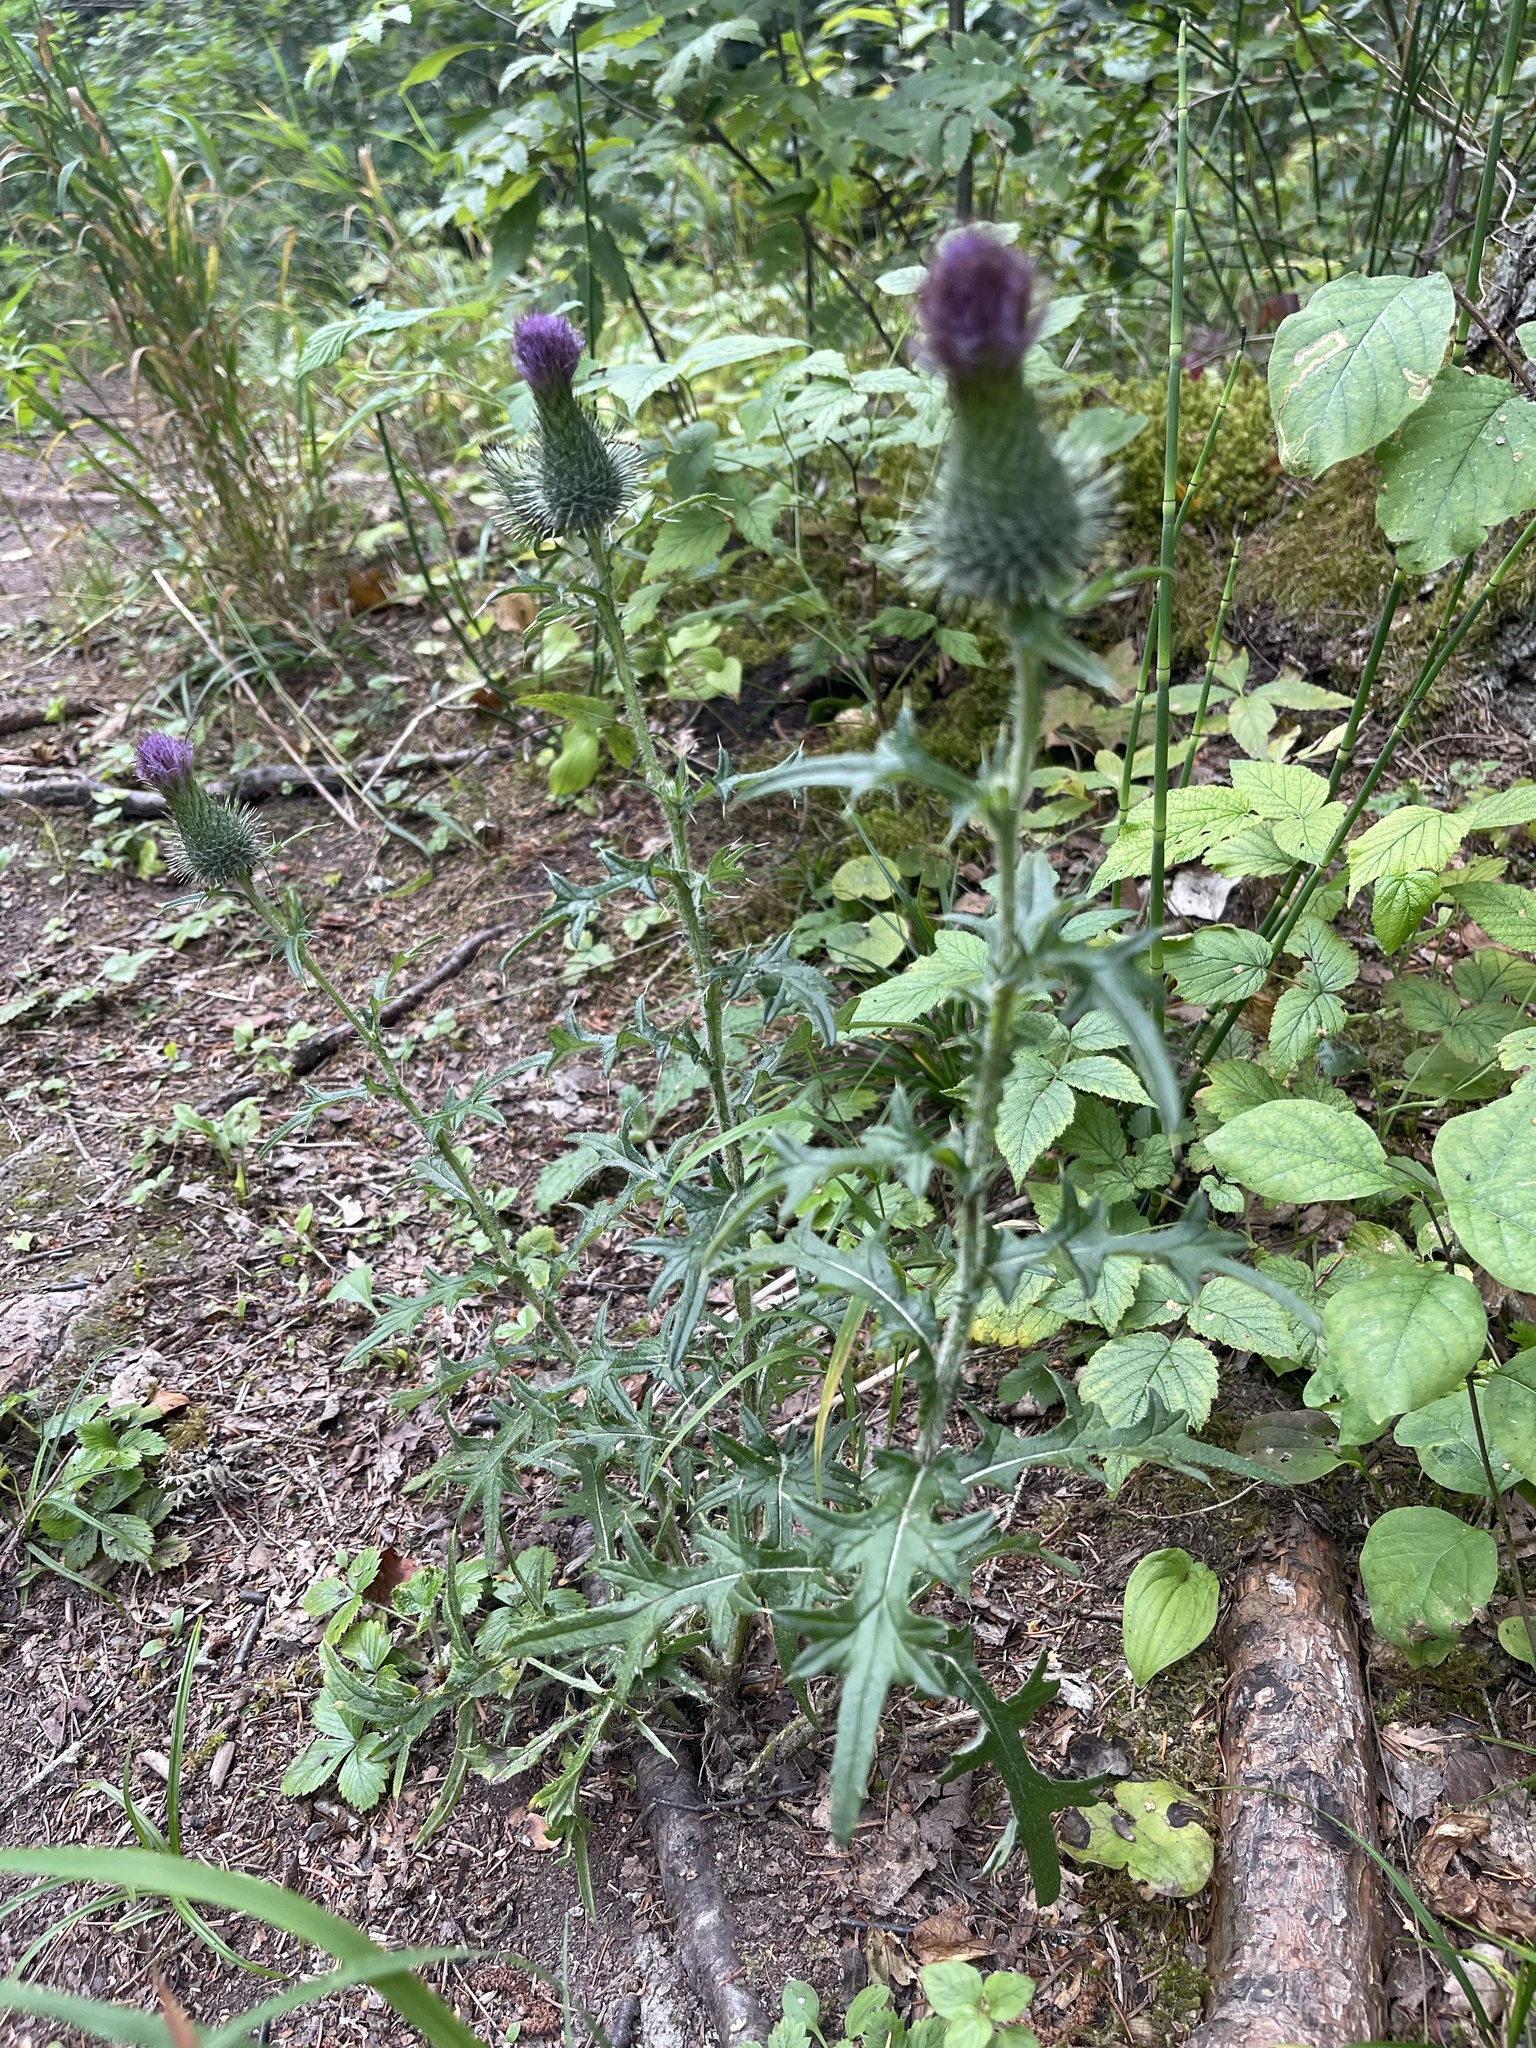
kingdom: Plantae
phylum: Tracheophyta
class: Magnoliopsida
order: Asterales
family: Asteraceae
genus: Cirsium
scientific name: Cirsium vulgare
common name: Bull thistle
